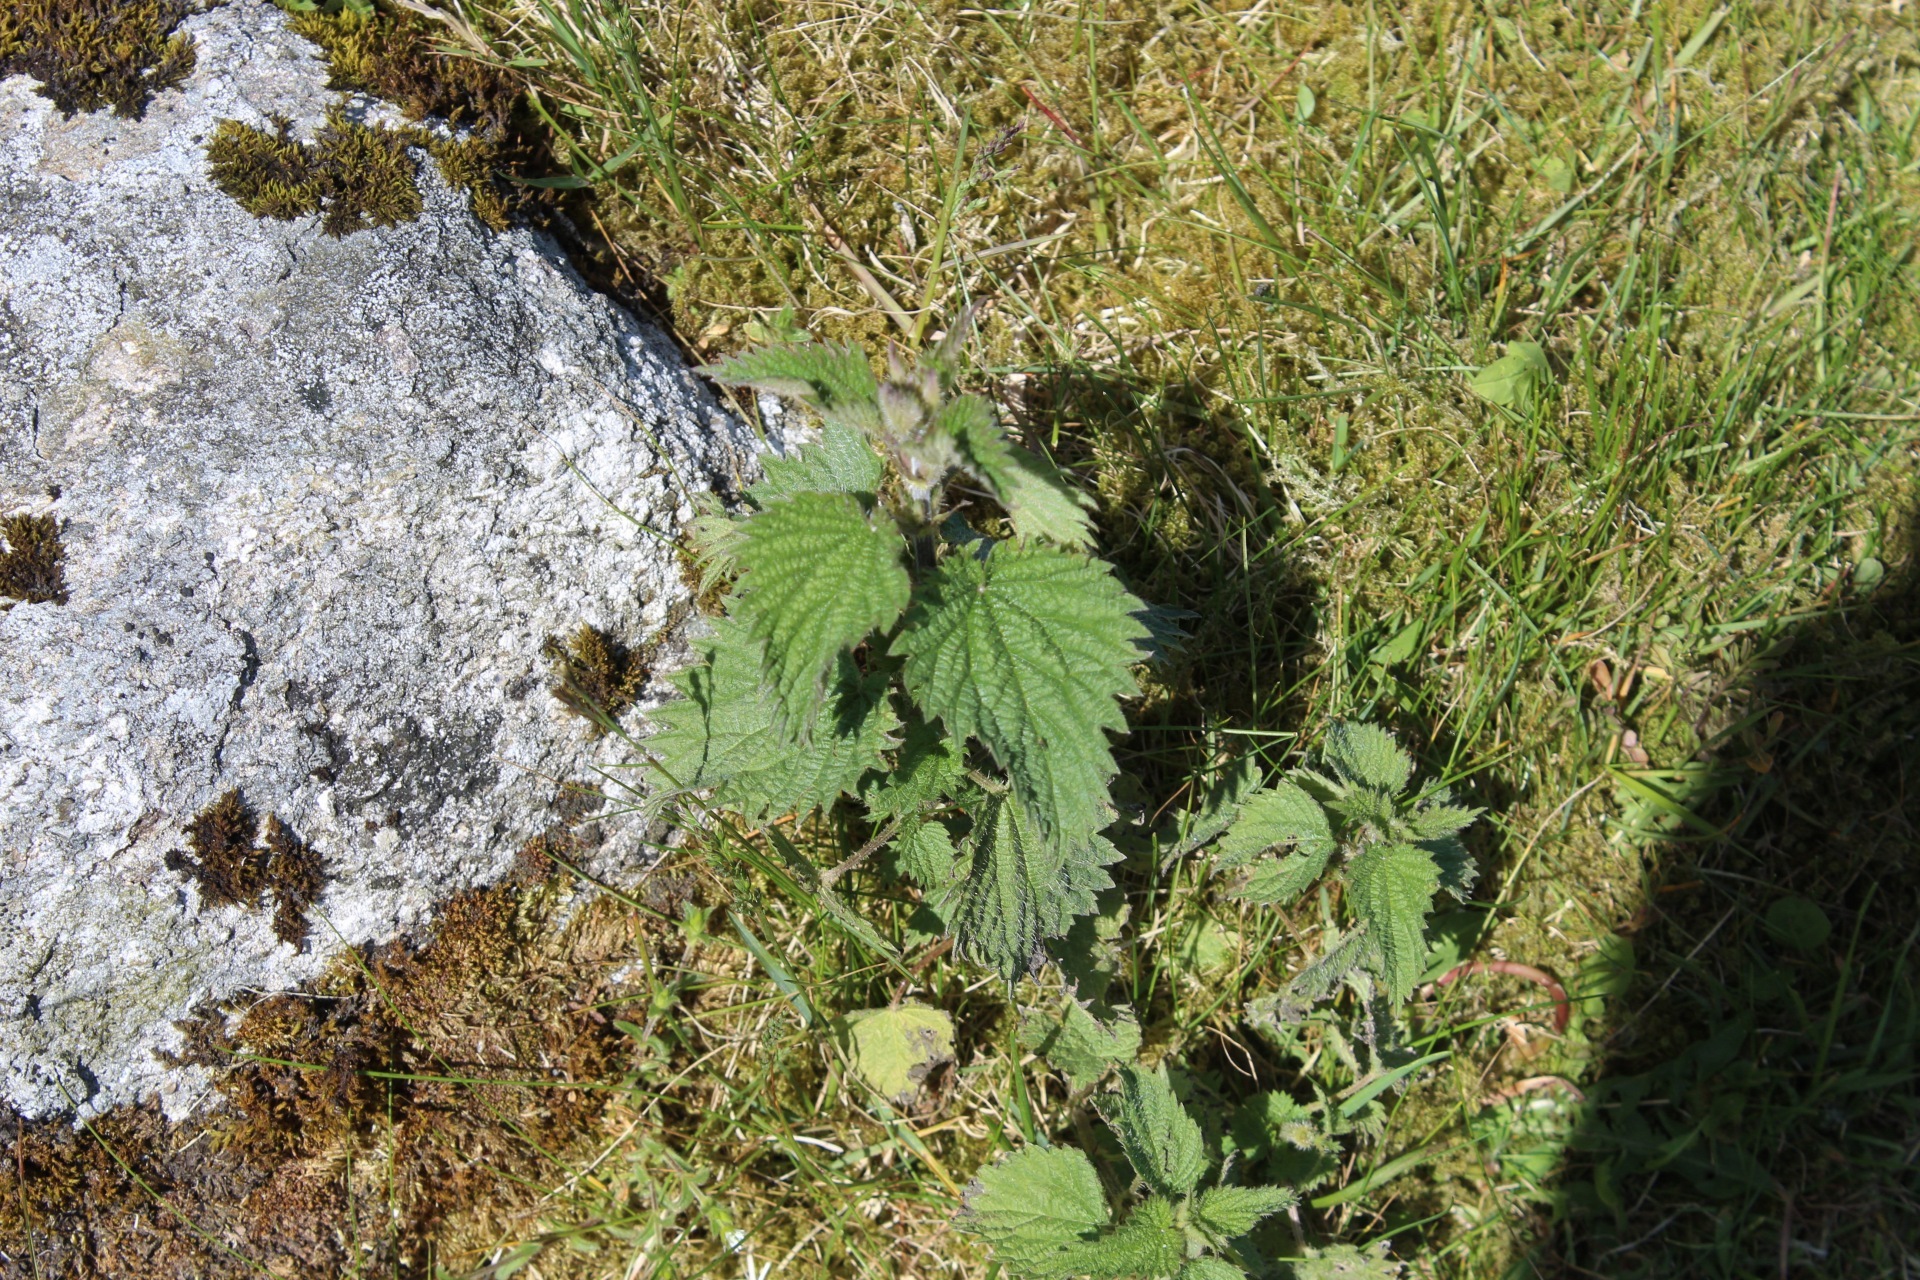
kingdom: Plantae
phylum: Tracheophyta
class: Magnoliopsida
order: Rosales
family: Urticaceae
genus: Urtica
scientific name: Urtica dioica
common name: Common nettle
